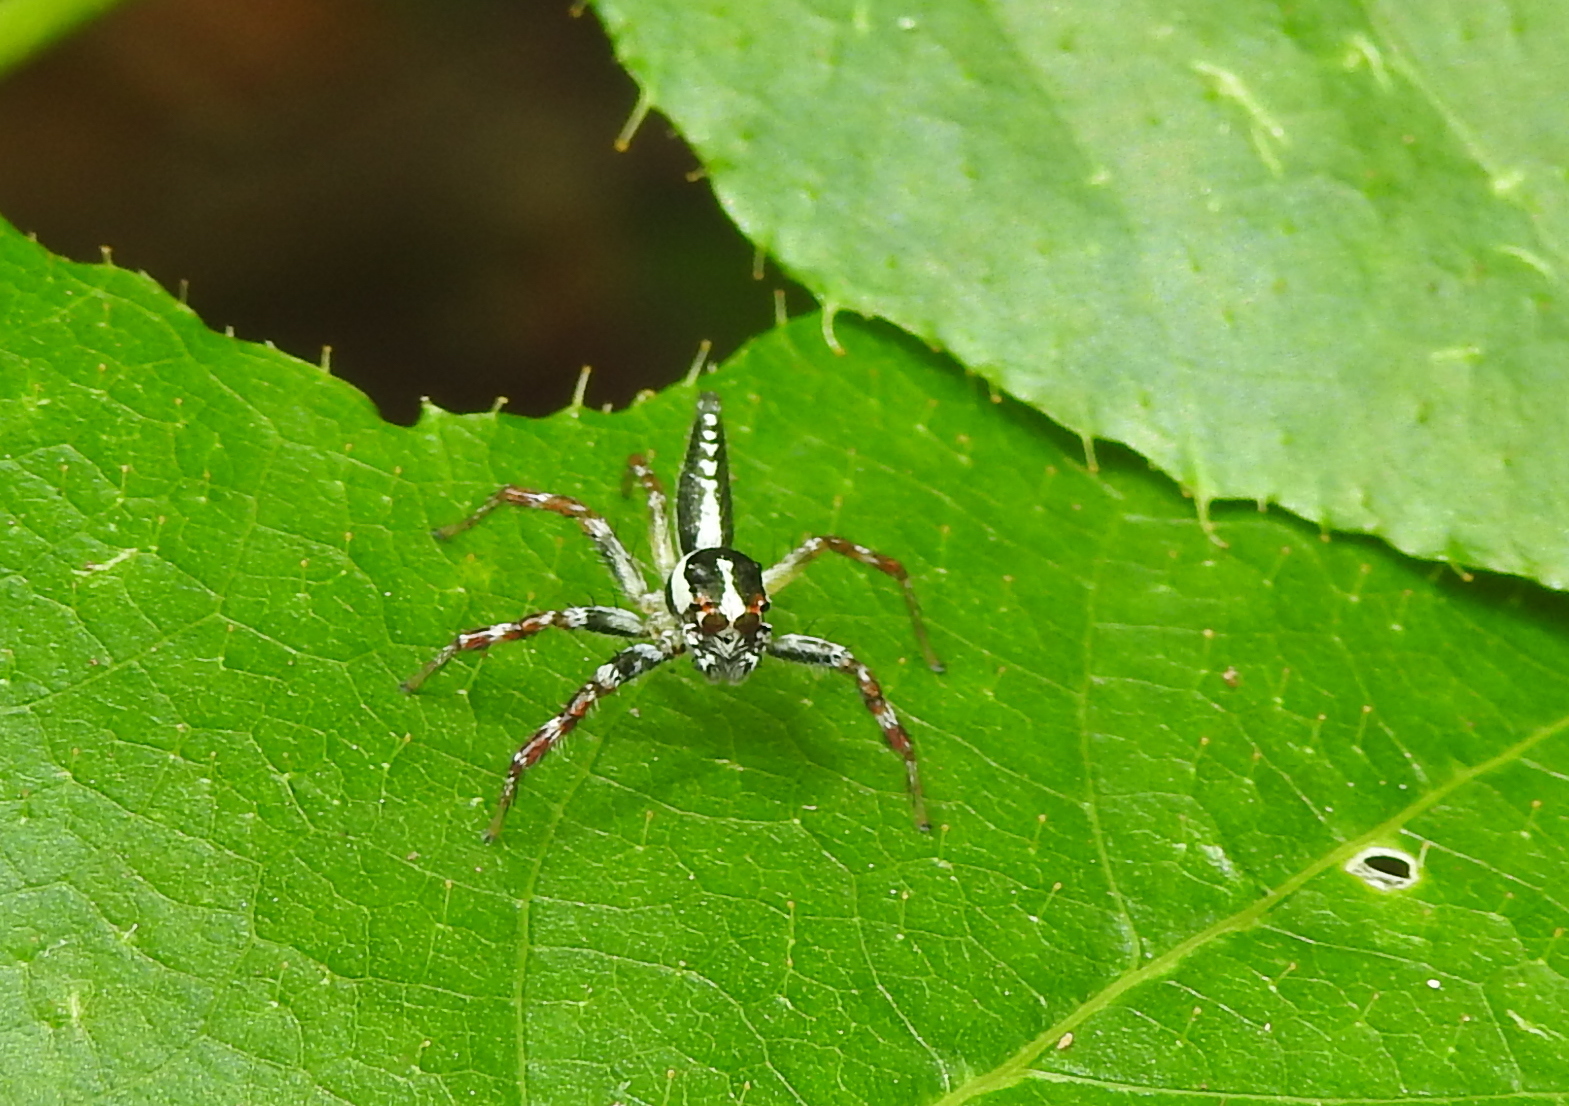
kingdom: Animalia
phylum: Arthropoda
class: Arachnida
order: Araneae
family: Salticidae
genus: Telamonia
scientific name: Telamonia festiva
